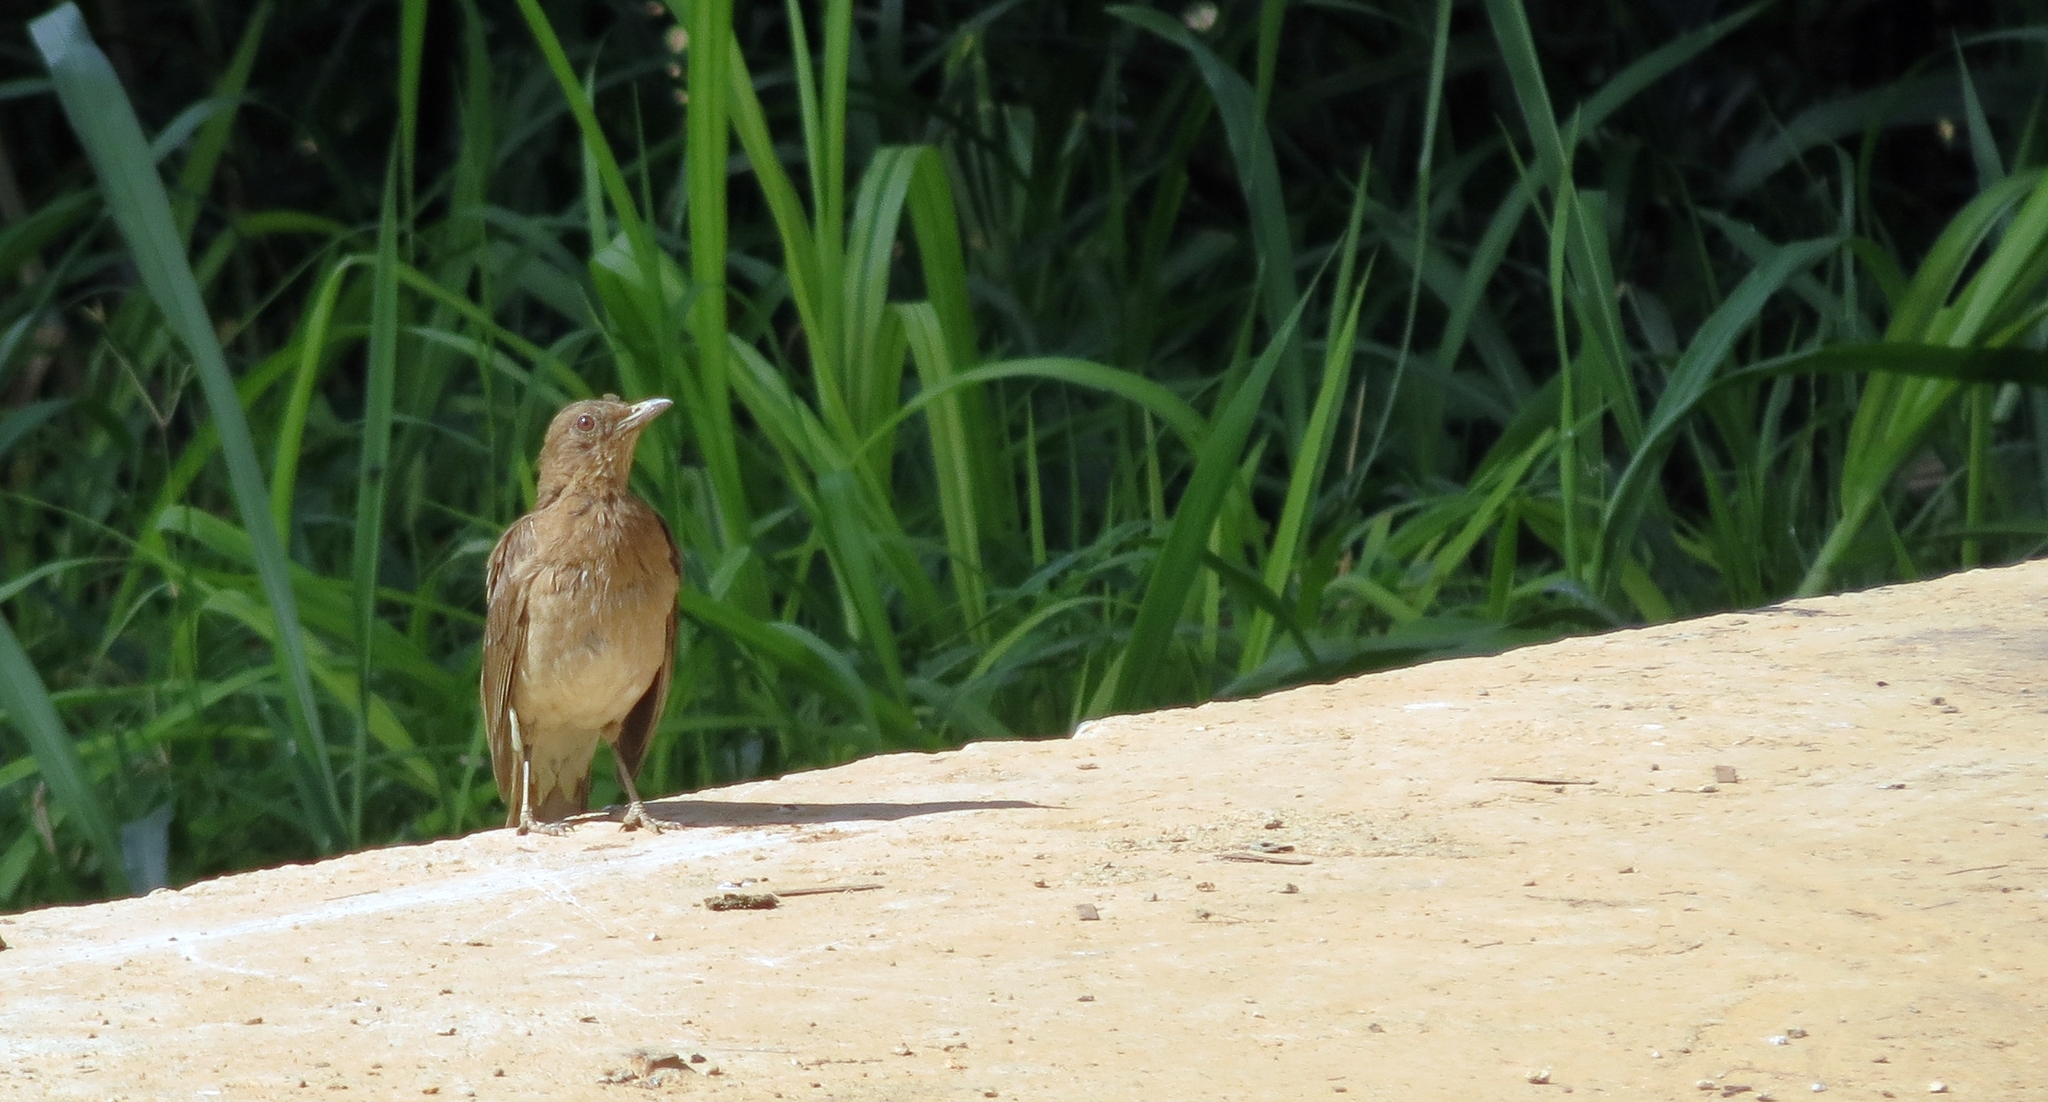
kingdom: Animalia
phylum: Chordata
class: Aves
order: Passeriformes
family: Turdidae
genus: Turdus
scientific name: Turdus grayi
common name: Clay-colored thrush
